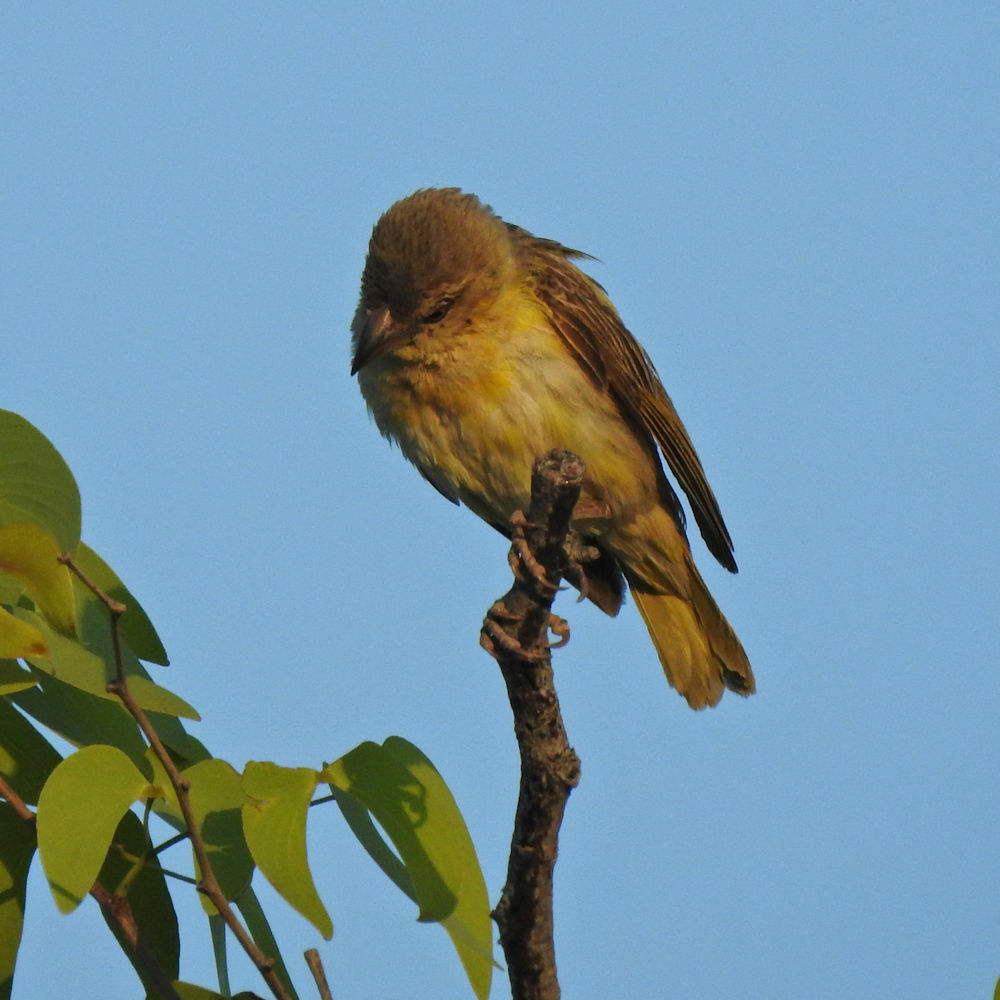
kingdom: Animalia
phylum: Chordata
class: Aves
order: Passeriformes
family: Ploceidae
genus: Ploceus
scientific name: Ploceus velatus
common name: Southern masked weaver
